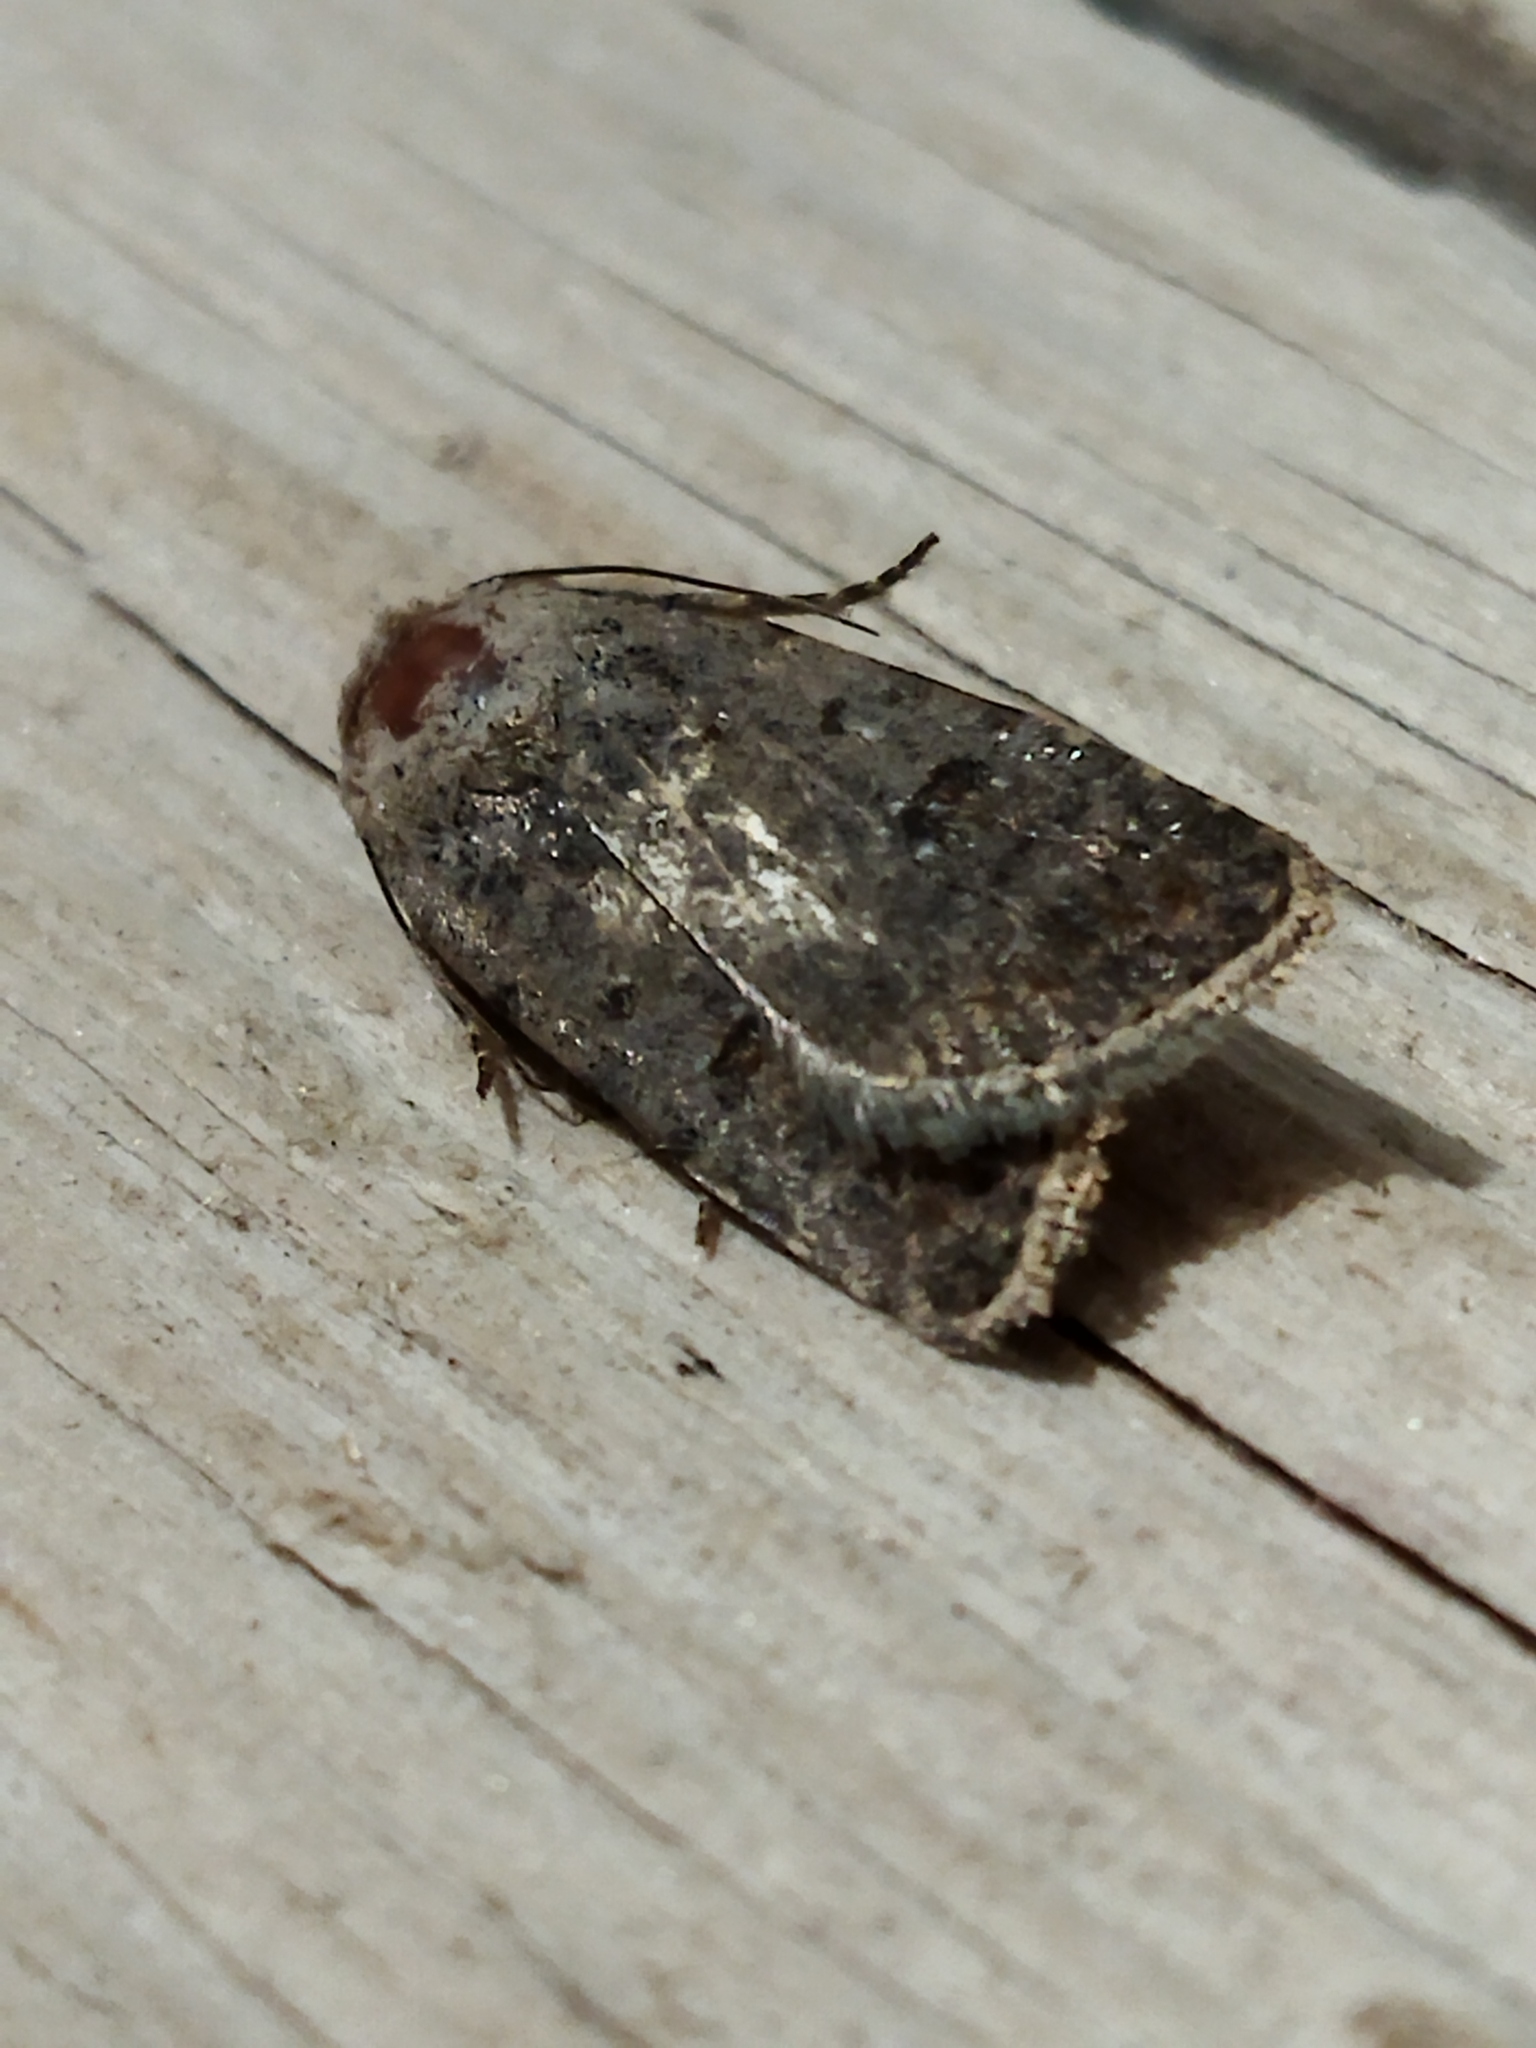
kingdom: Animalia
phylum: Arthropoda
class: Insecta
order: Lepidoptera
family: Noctuidae
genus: Caradrina
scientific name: Caradrina clavipalpis
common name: Pale mottled willow
